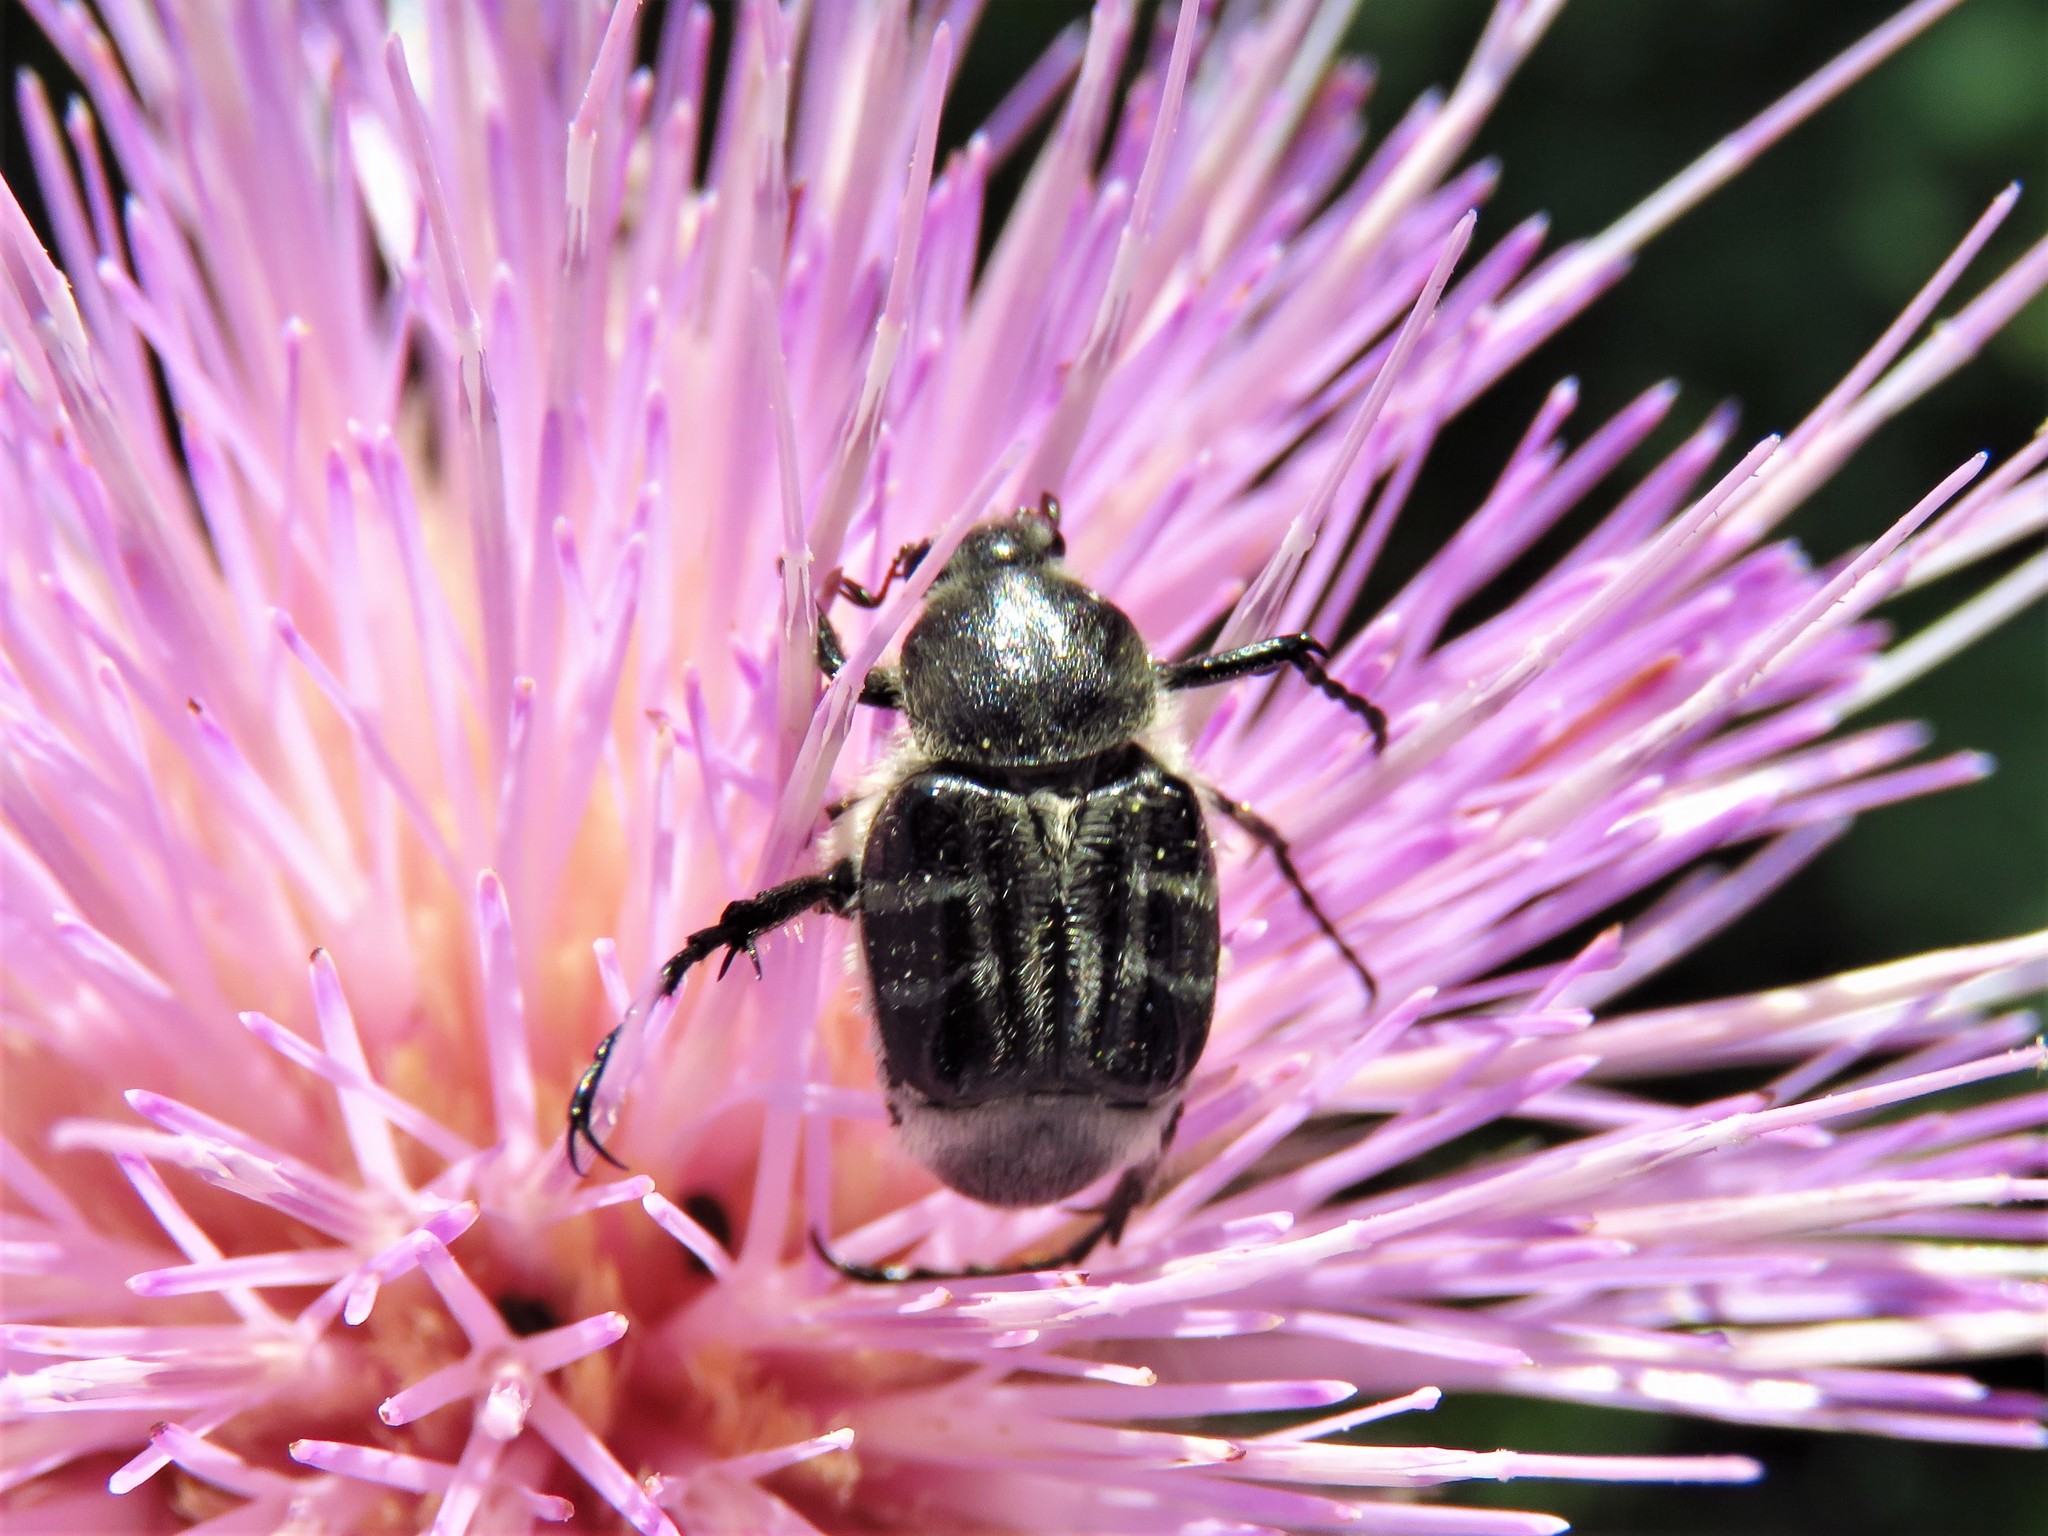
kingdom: Animalia
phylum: Arthropoda
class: Insecta
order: Coleoptera
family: Scarabaeidae
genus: Trichiotinus
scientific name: Trichiotinus texanus
